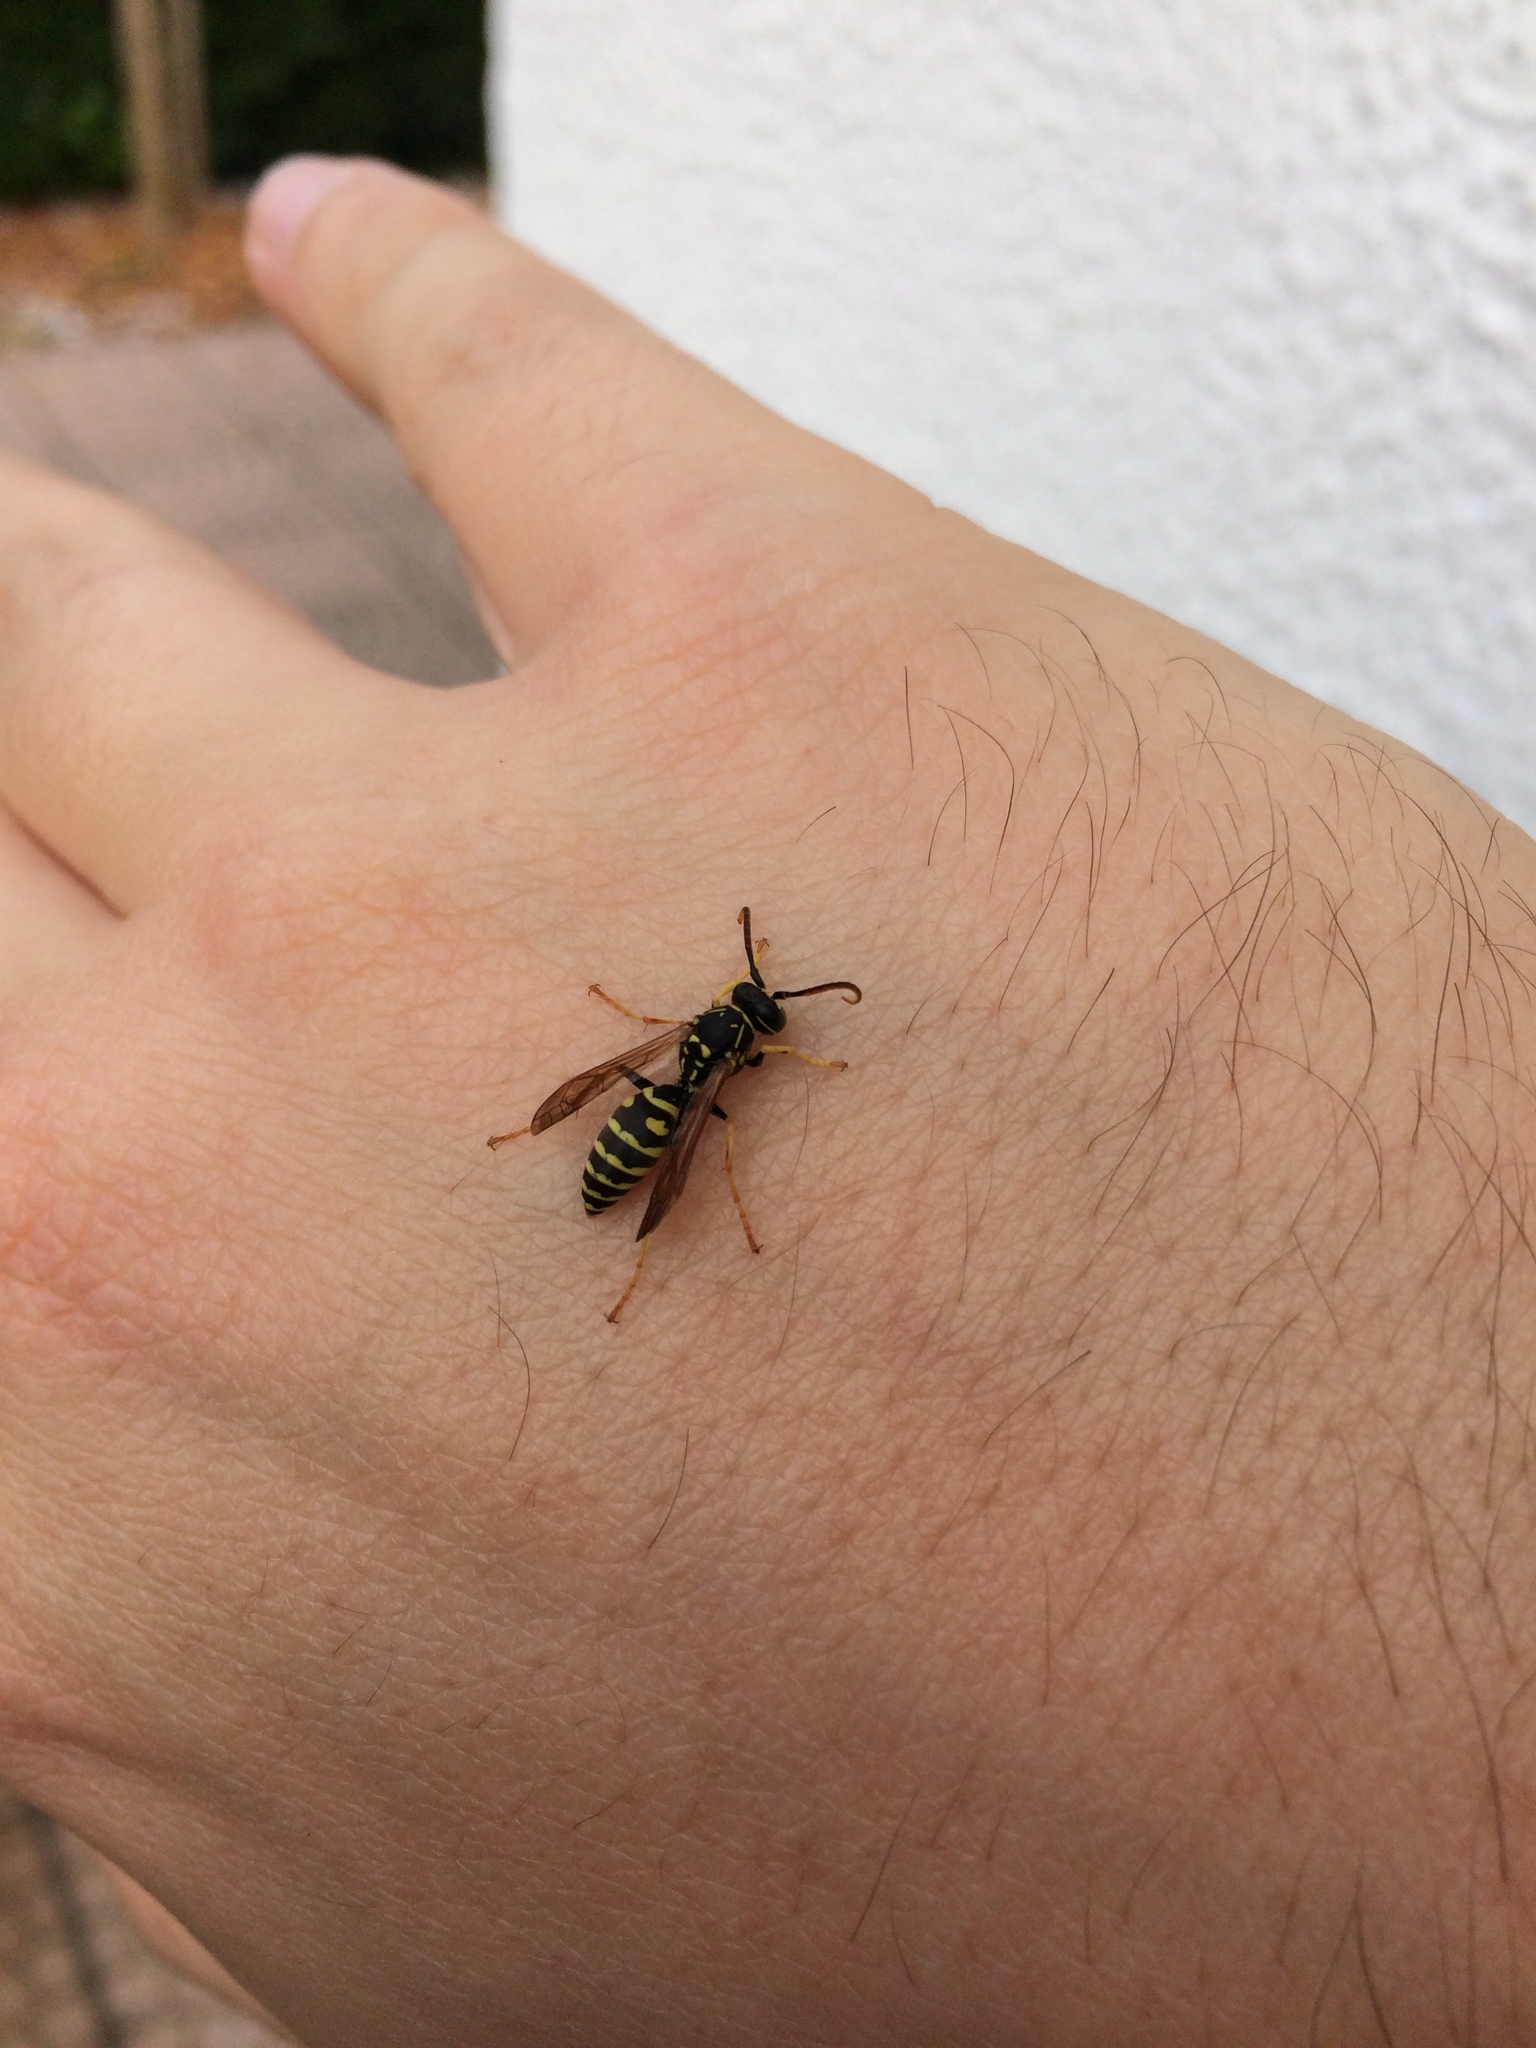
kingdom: Animalia
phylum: Arthropoda
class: Insecta
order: Hymenoptera
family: Eumenidae
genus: Polistes
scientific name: Polistes dominula
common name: Paper wasp
